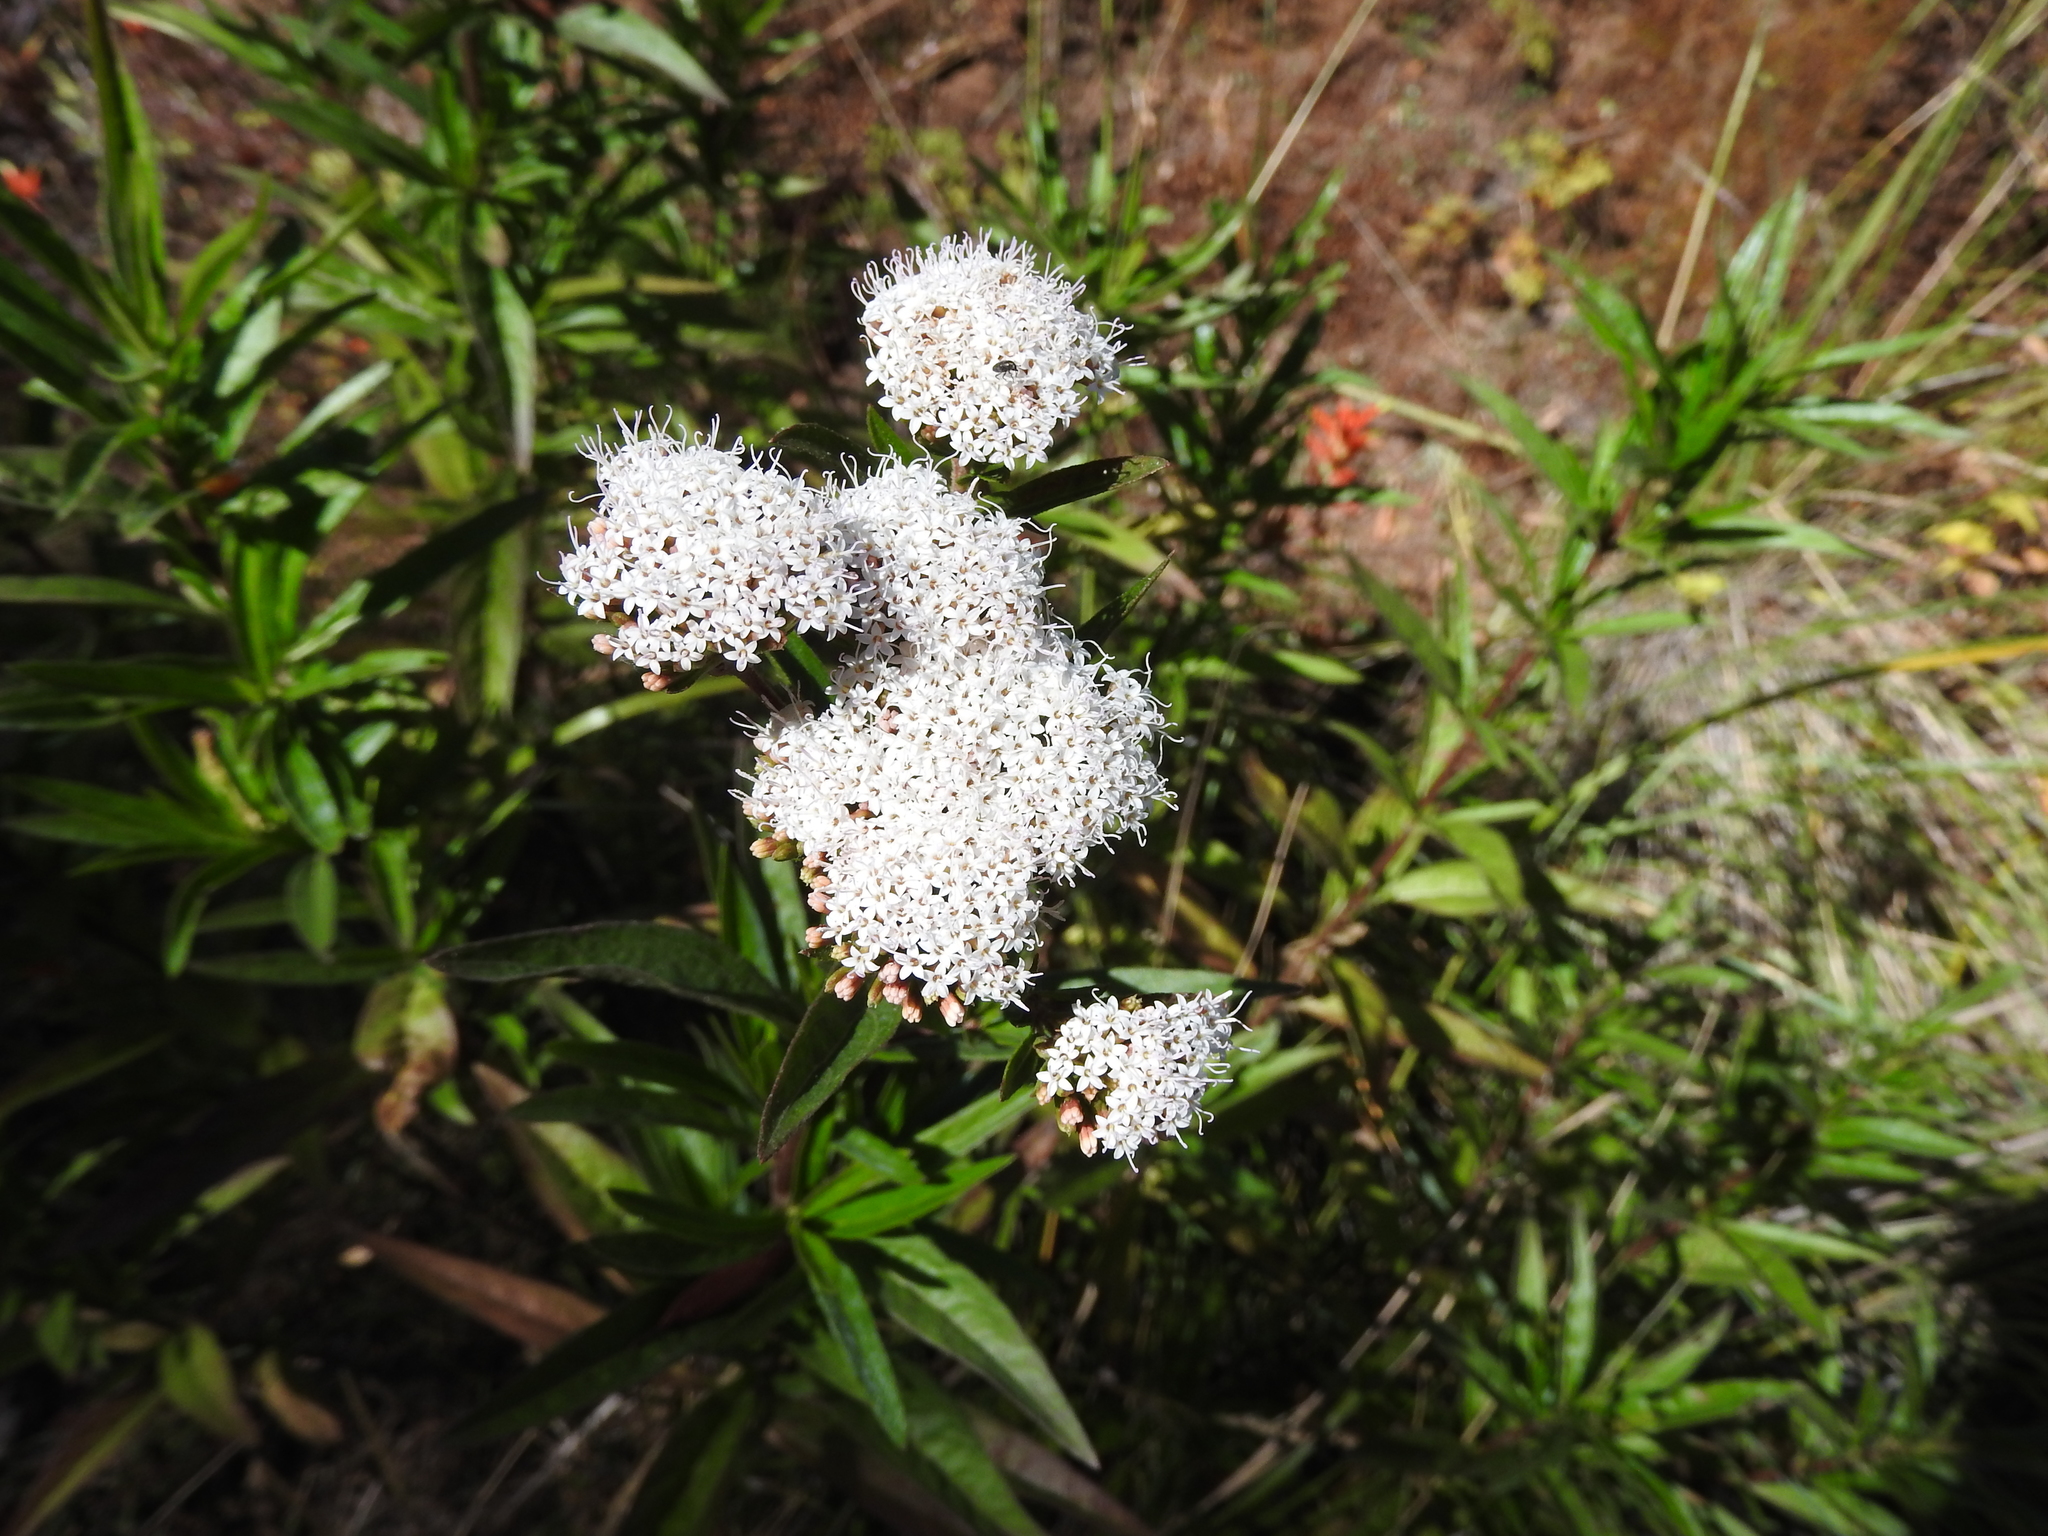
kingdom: Plantae
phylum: Tracheophyta
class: Magnoliopsida
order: Asterales
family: Asteraceae
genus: Stevia
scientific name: Stevia lucida
